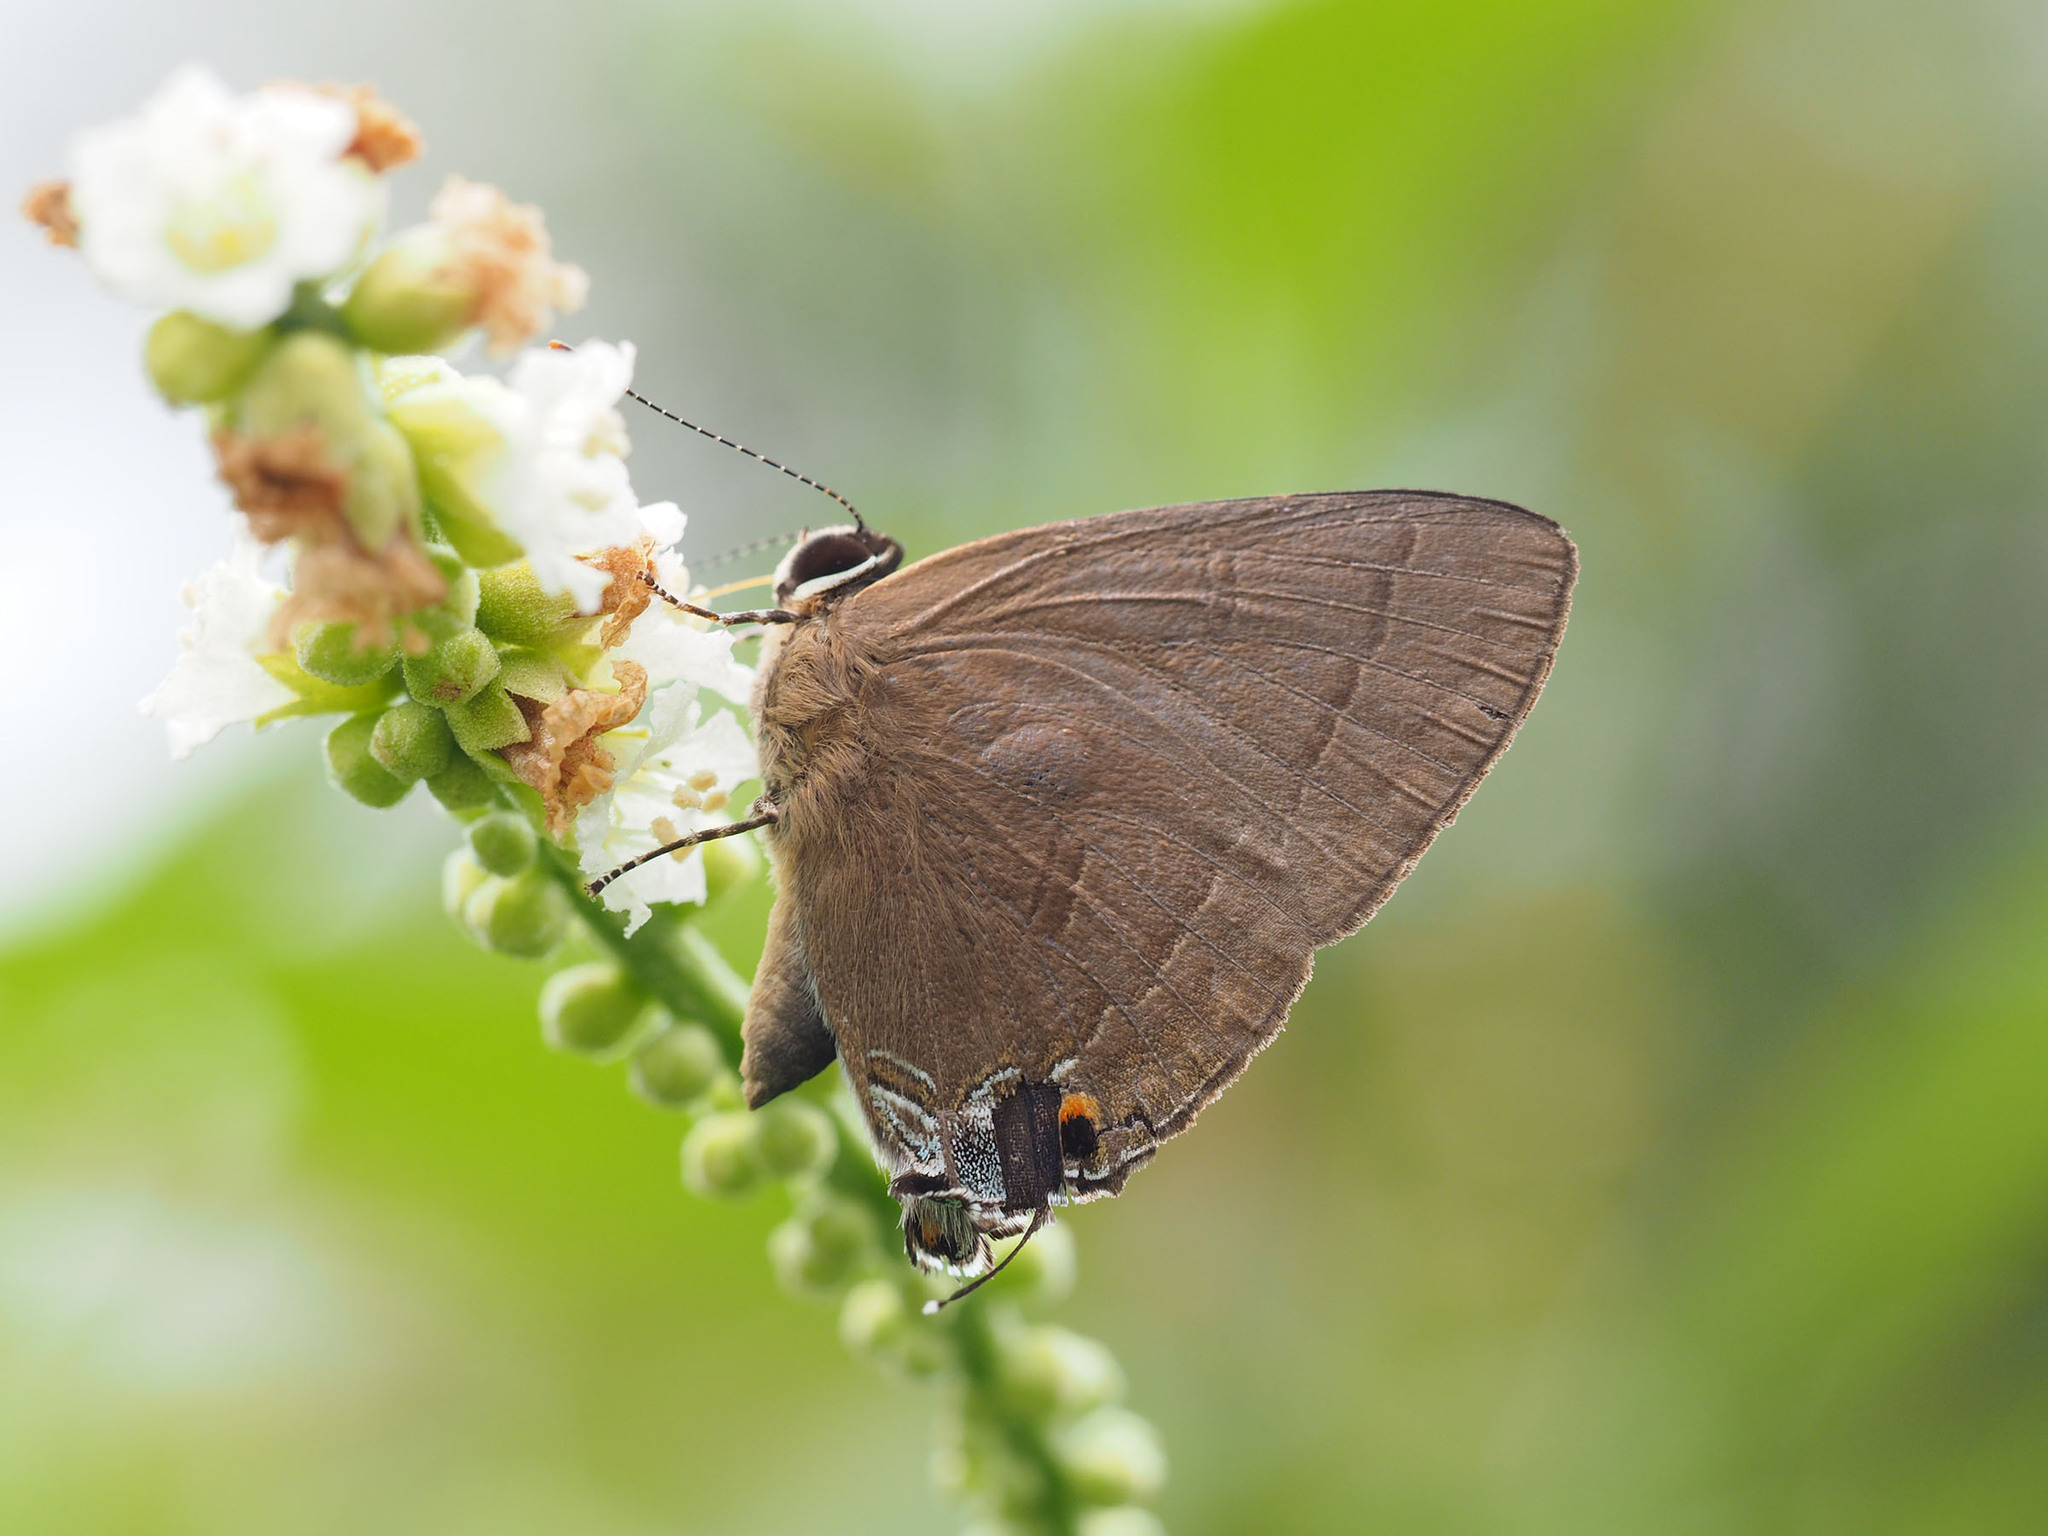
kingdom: Animalia
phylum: Arthropoda
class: Insecta
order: Lepidoptera
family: Lycaenidae
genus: Rapala
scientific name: Rapala manea
